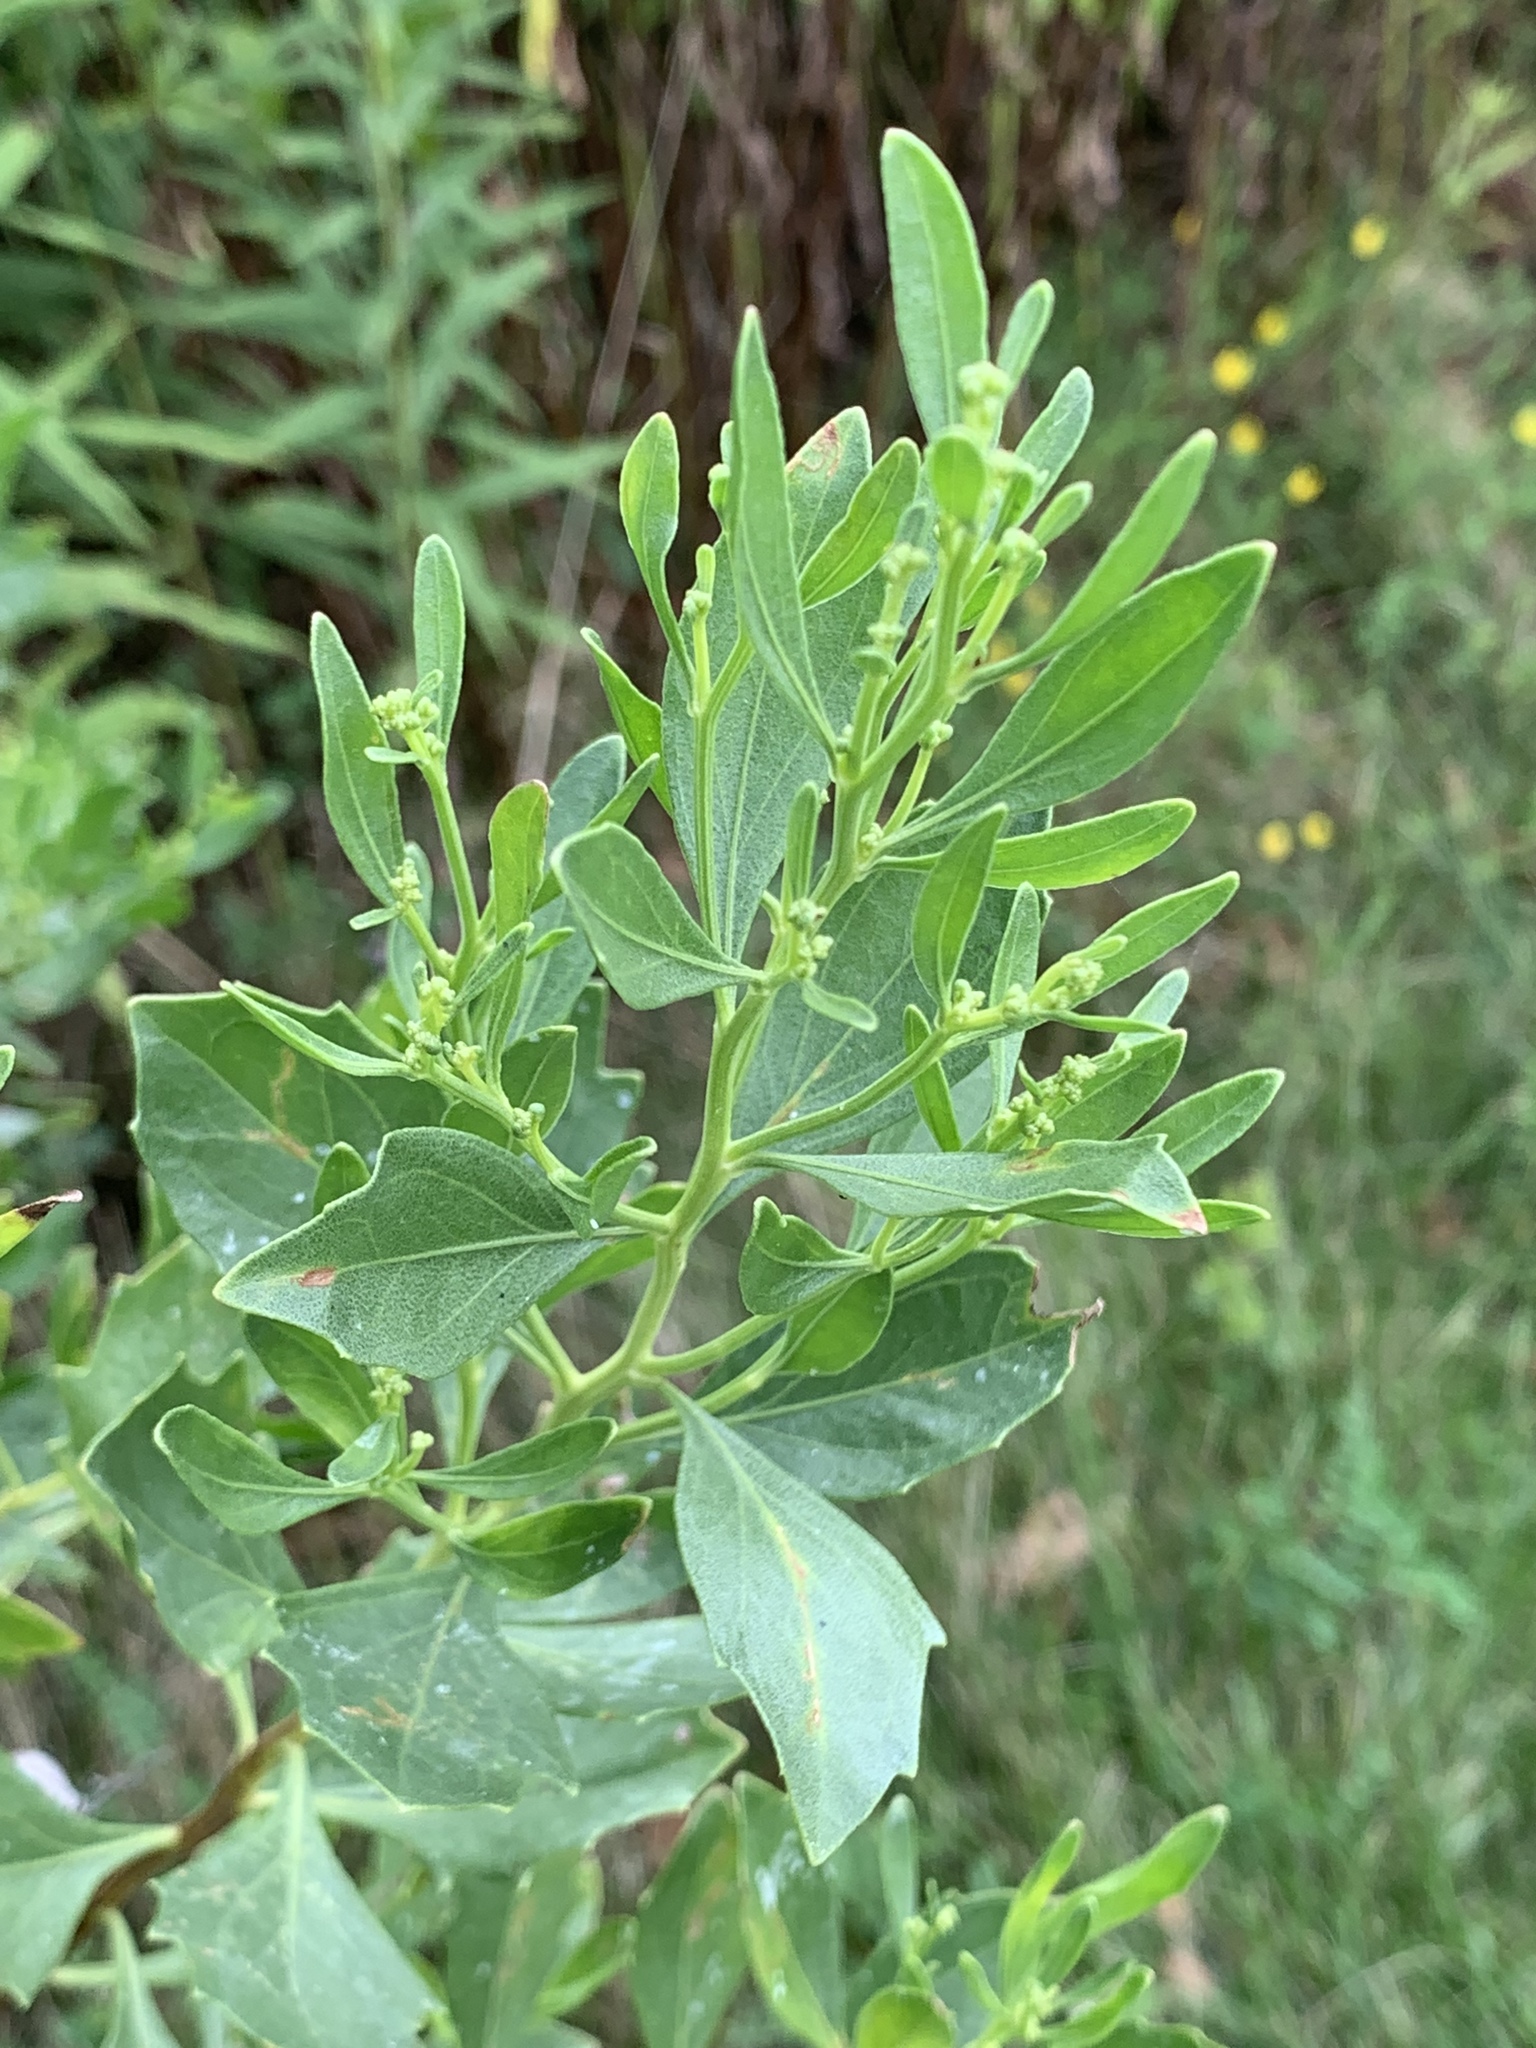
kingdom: Plantae
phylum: Tracheophyta
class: Magnoliopsida
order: Asterales
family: Asteraceae
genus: Baccharis
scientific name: Baccharis halimifolia
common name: Eastern baccharis
